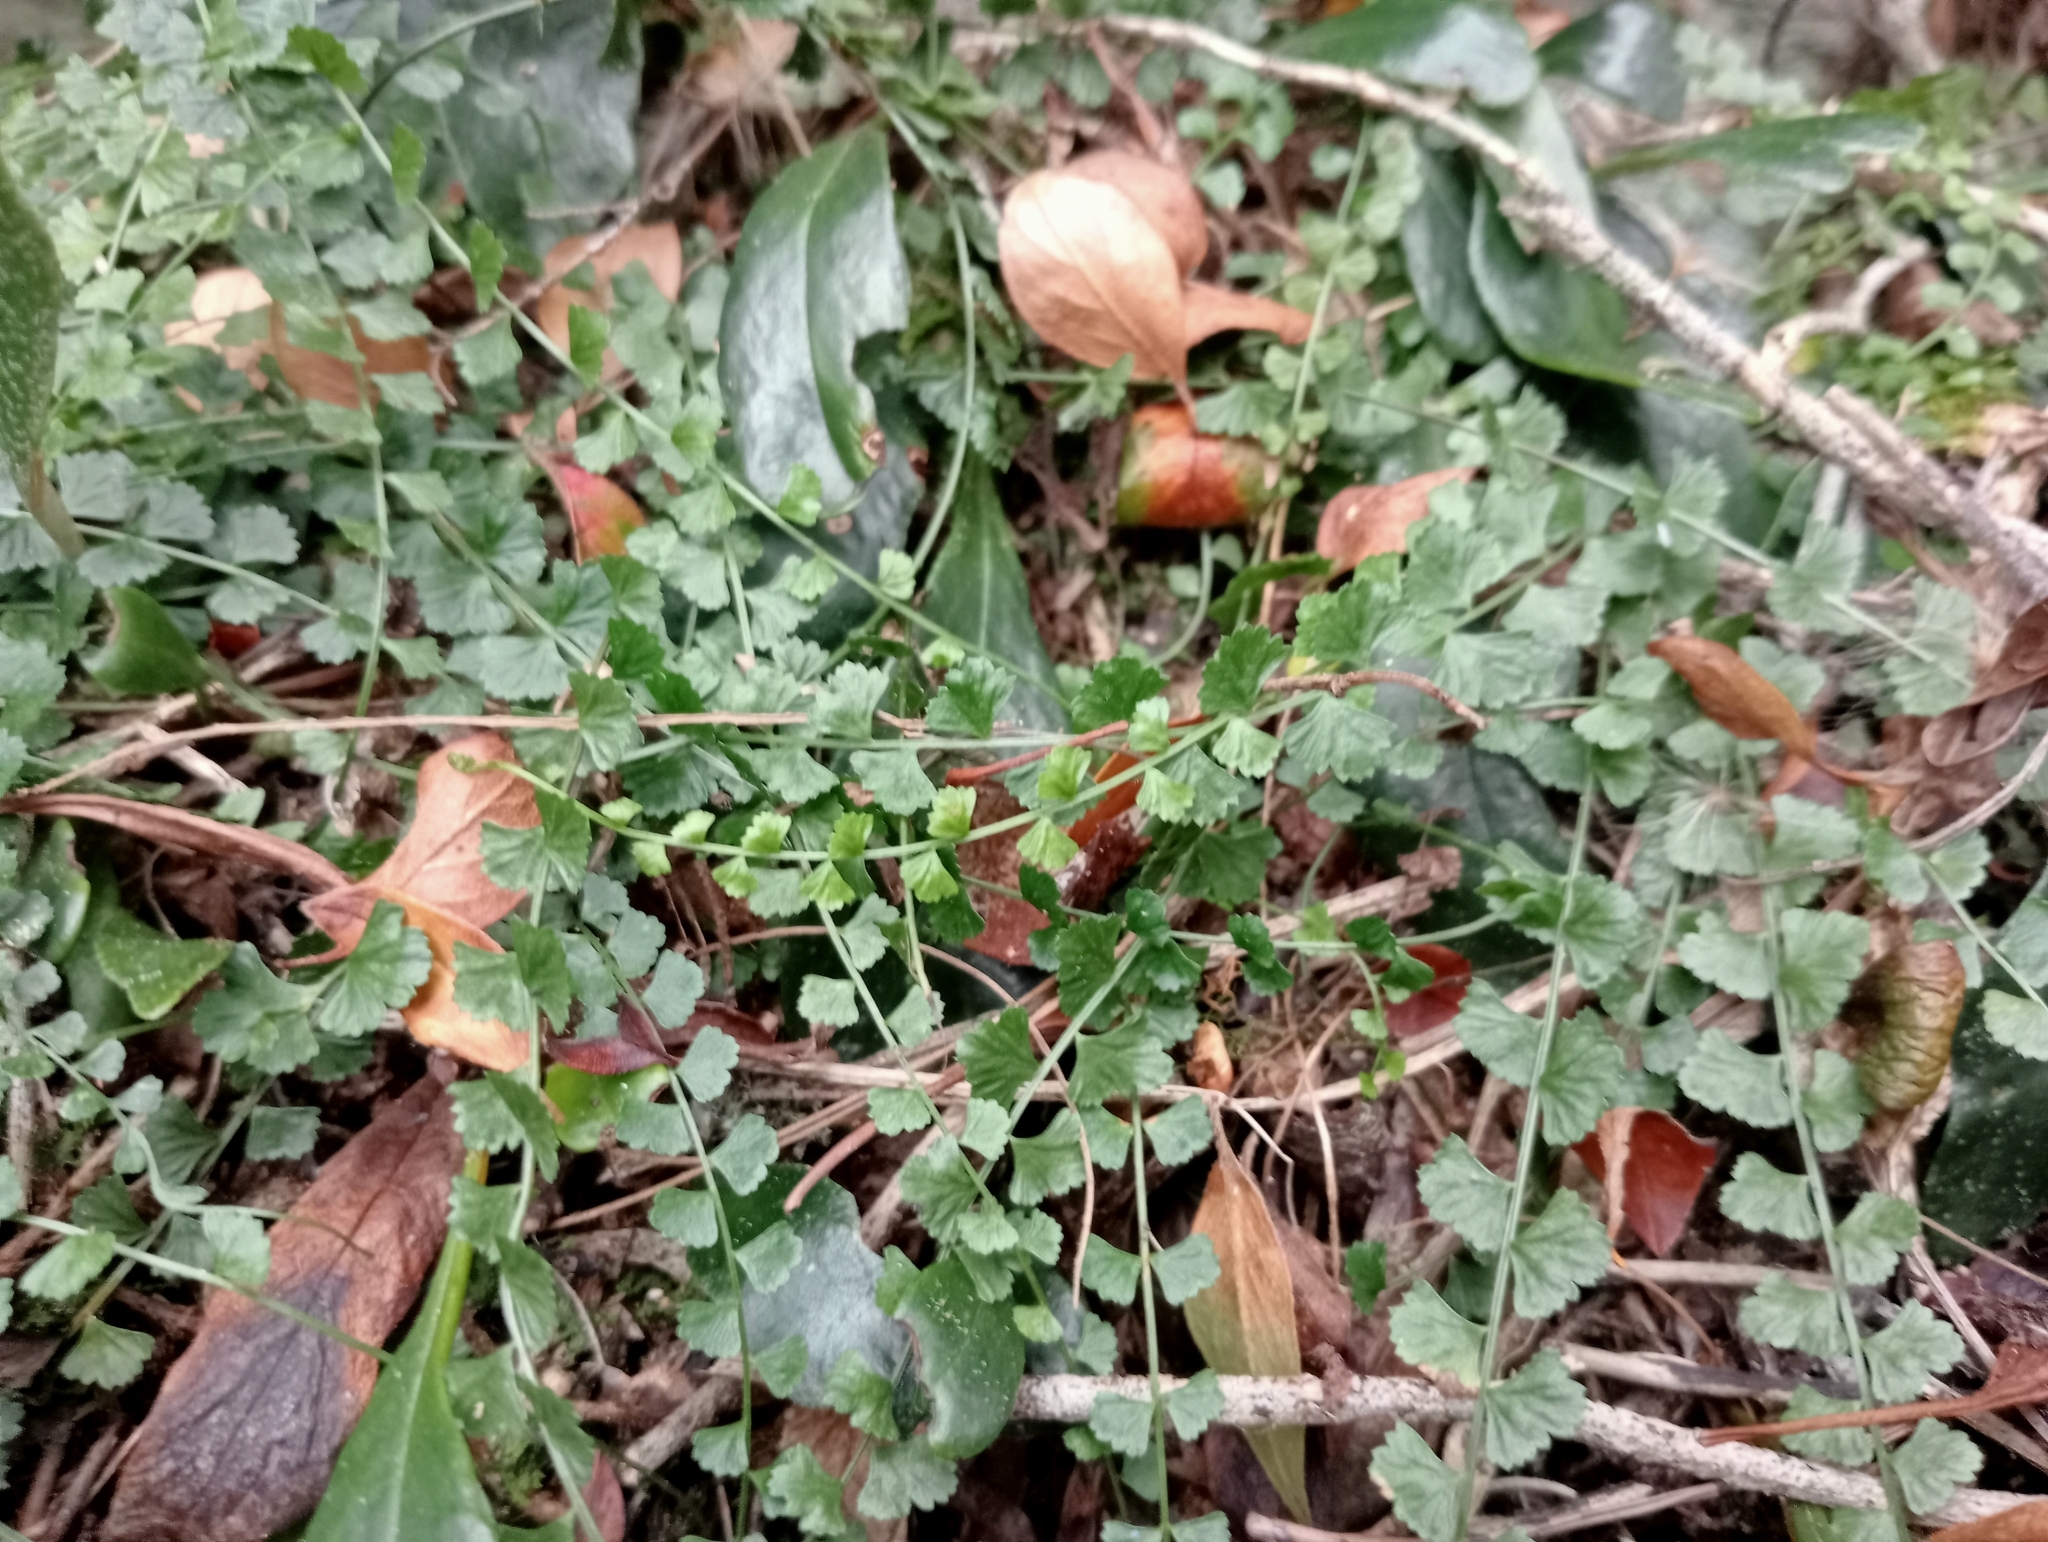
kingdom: Plantae
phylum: Tracheophyta
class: Polypodiopsida
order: Polypodiales
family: Aspleniaceae
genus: Asplenium
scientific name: Asplenium flabellifolium
